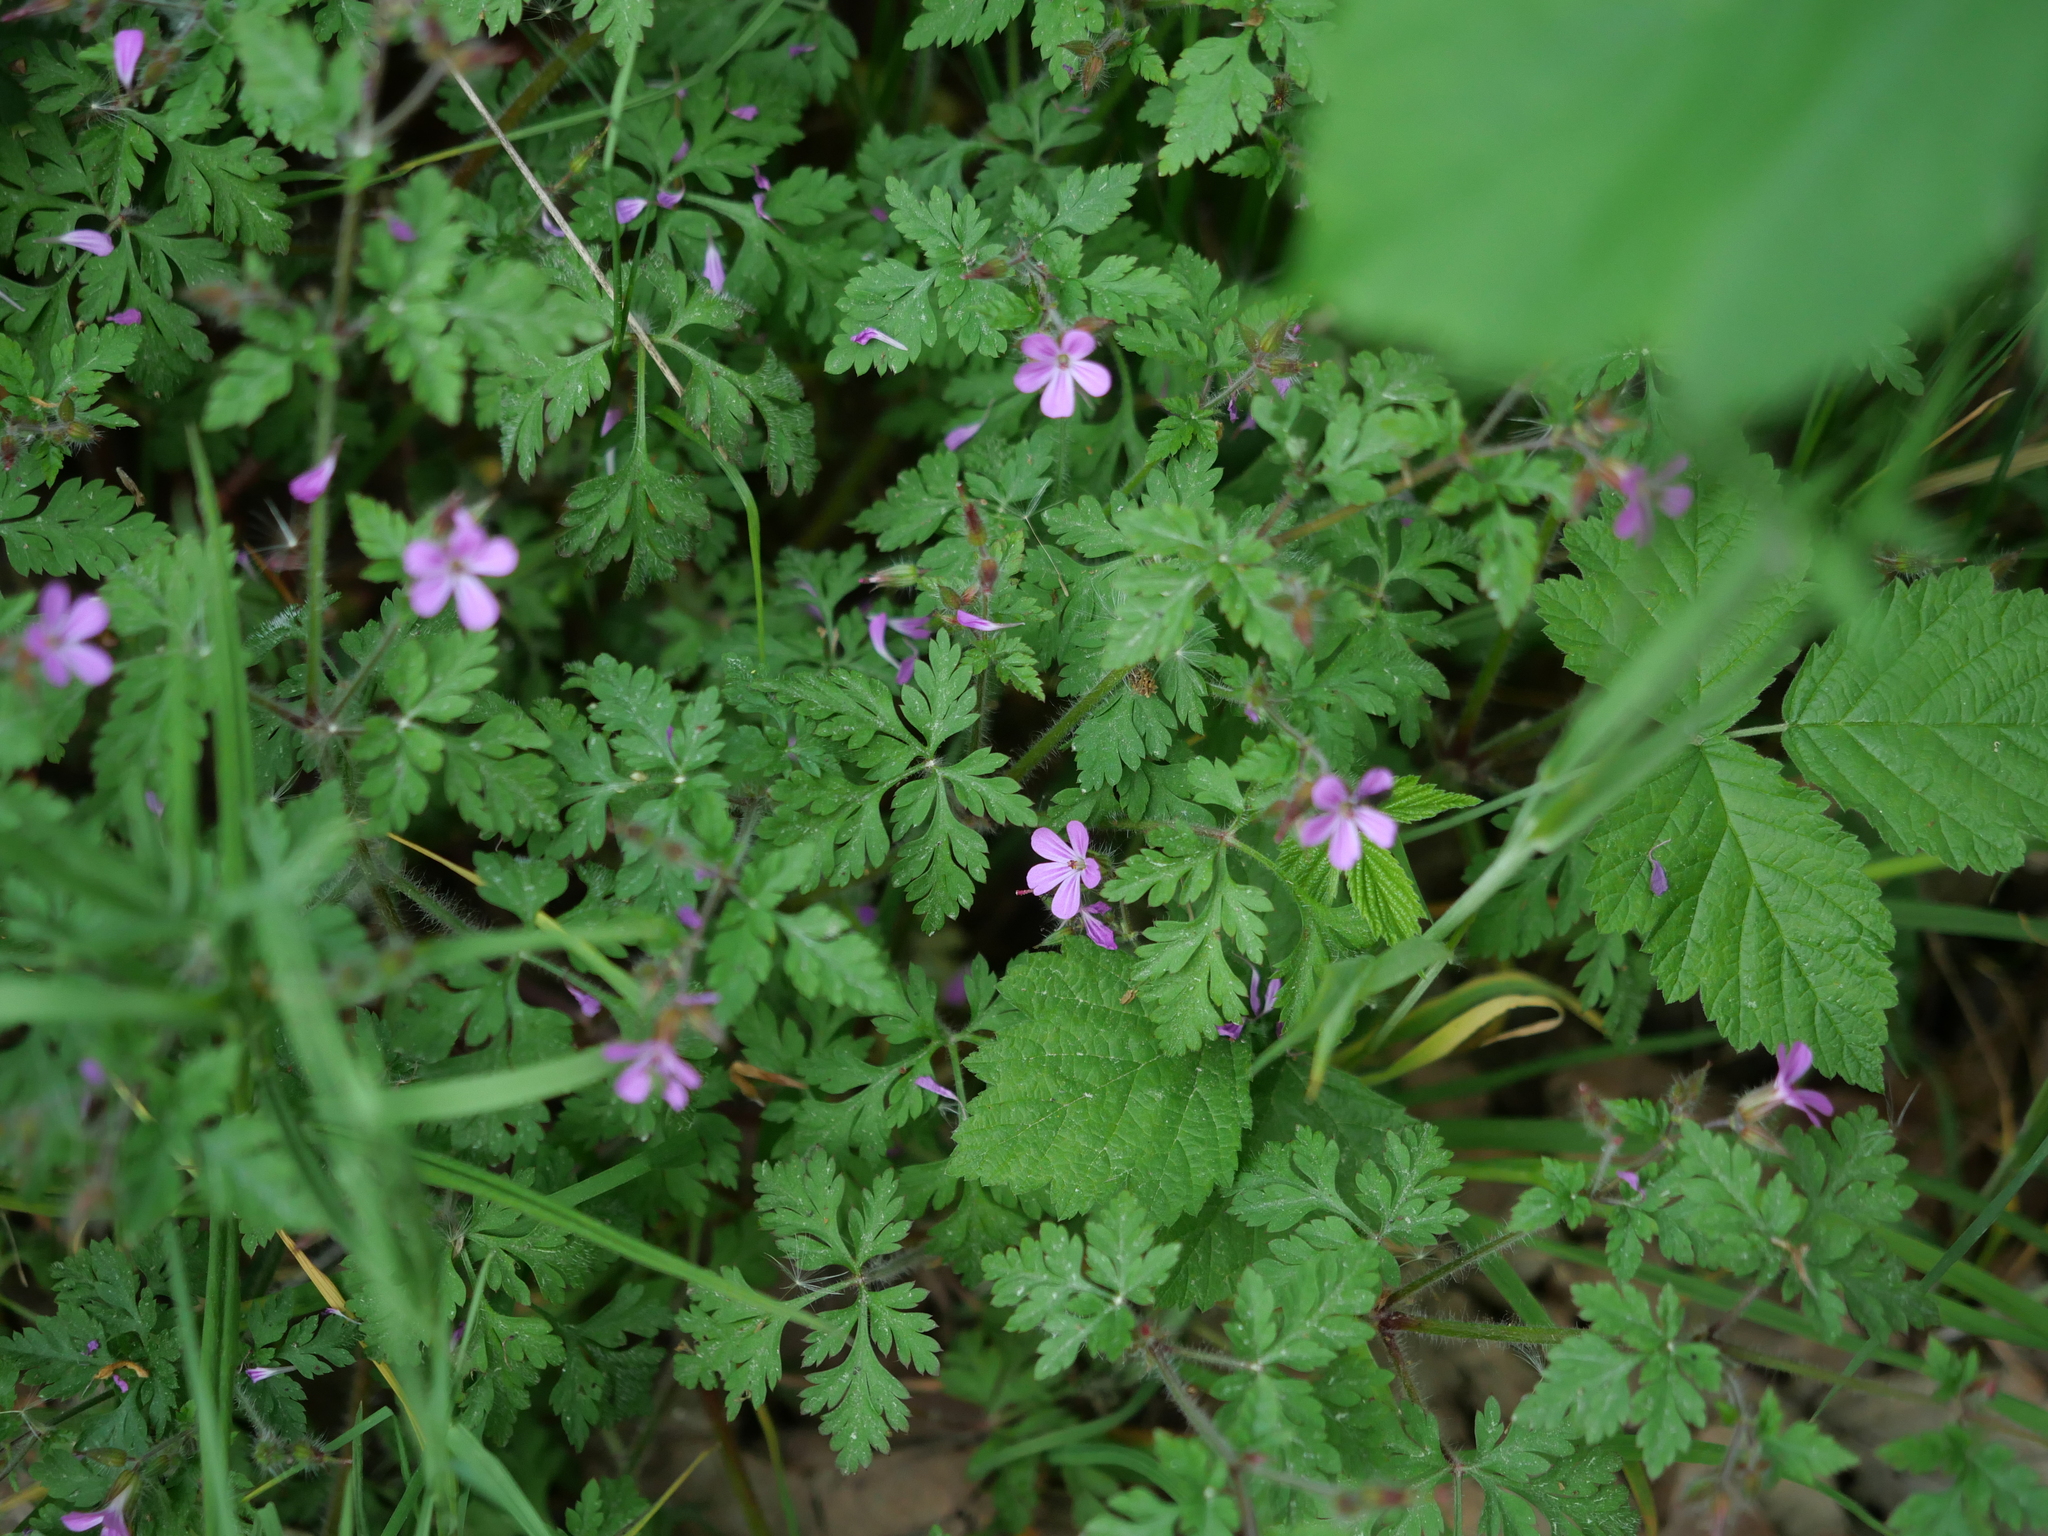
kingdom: Plantae
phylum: Tracheophyta
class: Magnoliopsida
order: Geraniales
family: Geraniaceae
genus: Geranium
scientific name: Geranium robertianum
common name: Herb-robert
